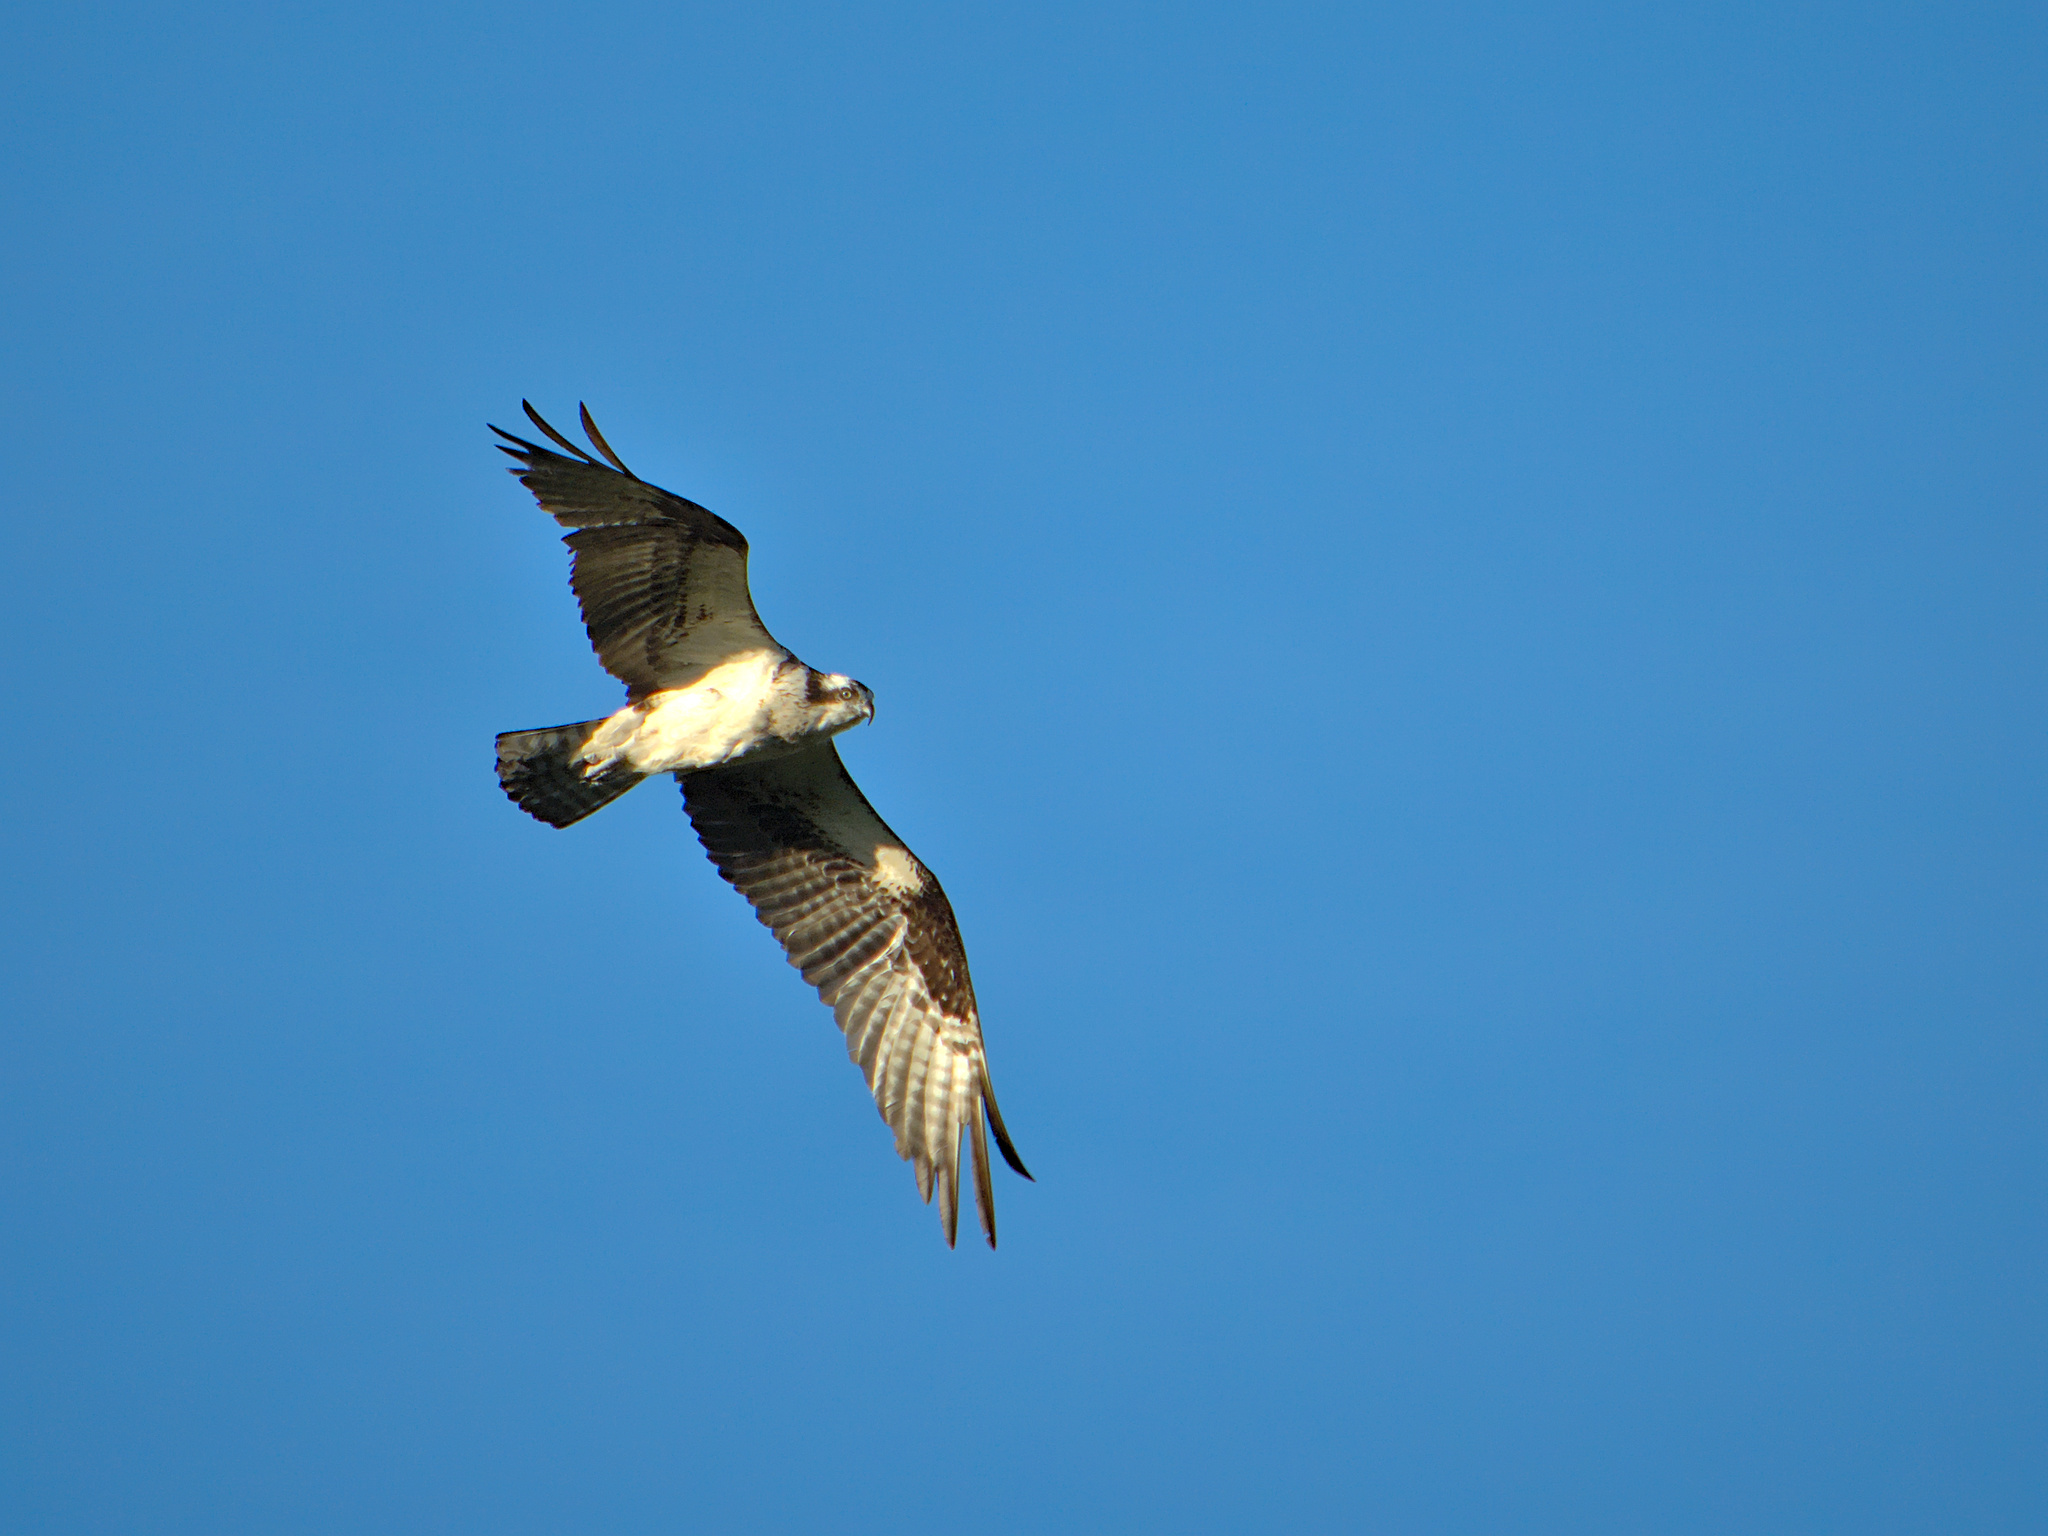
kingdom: Animalia
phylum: Chordata
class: Aves
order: Accipitriformes
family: Pandionidae
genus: Pandion
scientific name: Pandion haliaetus
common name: Osprey
